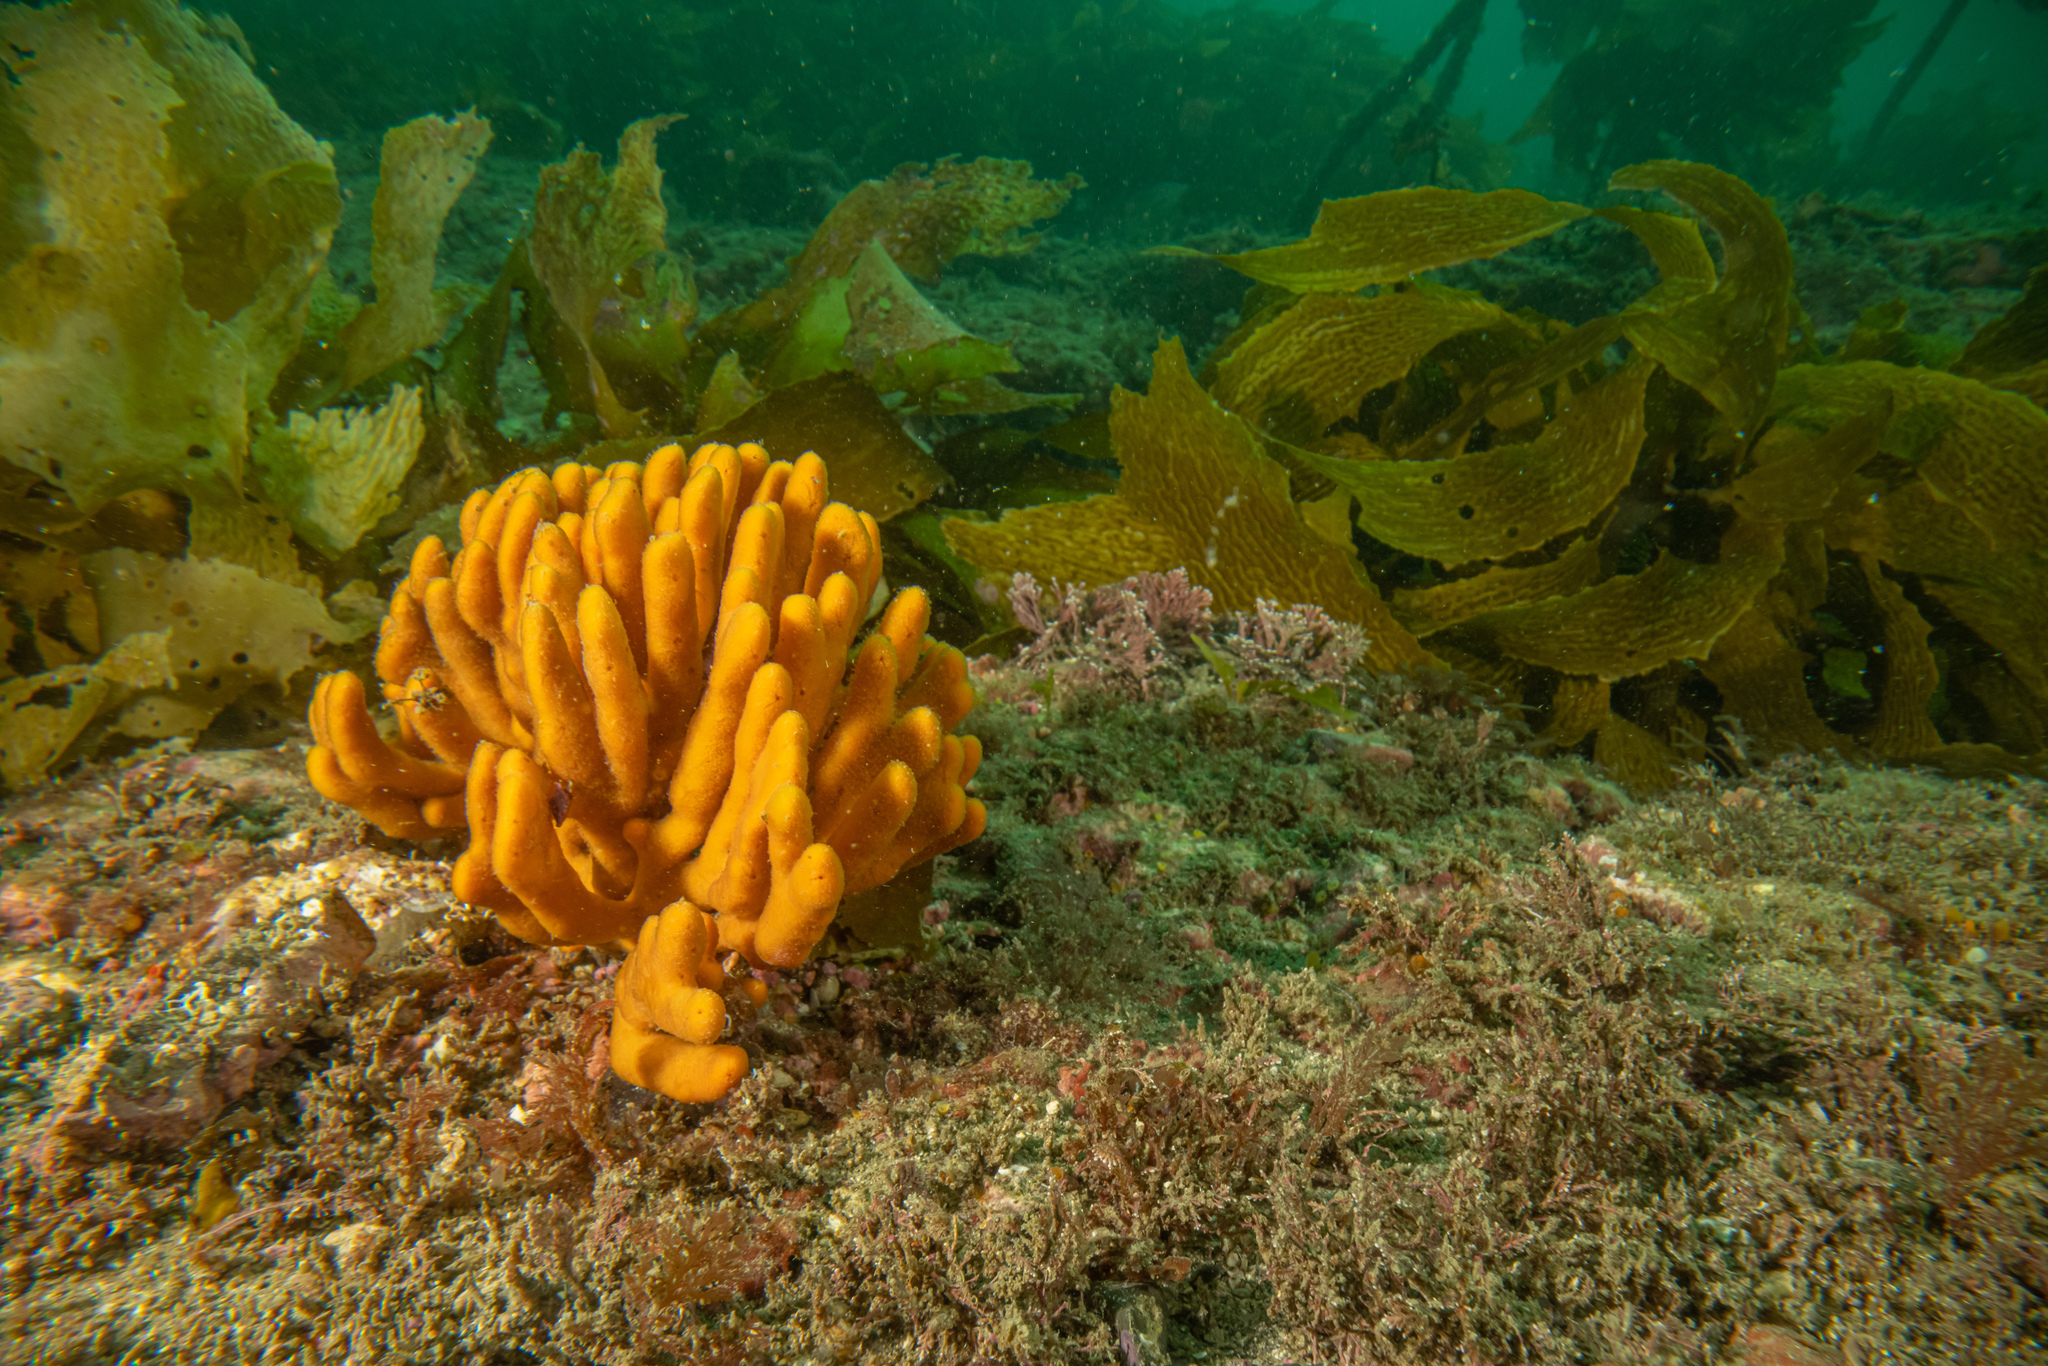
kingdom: Animalia
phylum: Porifera
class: Demospongiae
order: Axinellida
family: Raspailiidae
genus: Raspailia
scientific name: Raspailia topsenti
